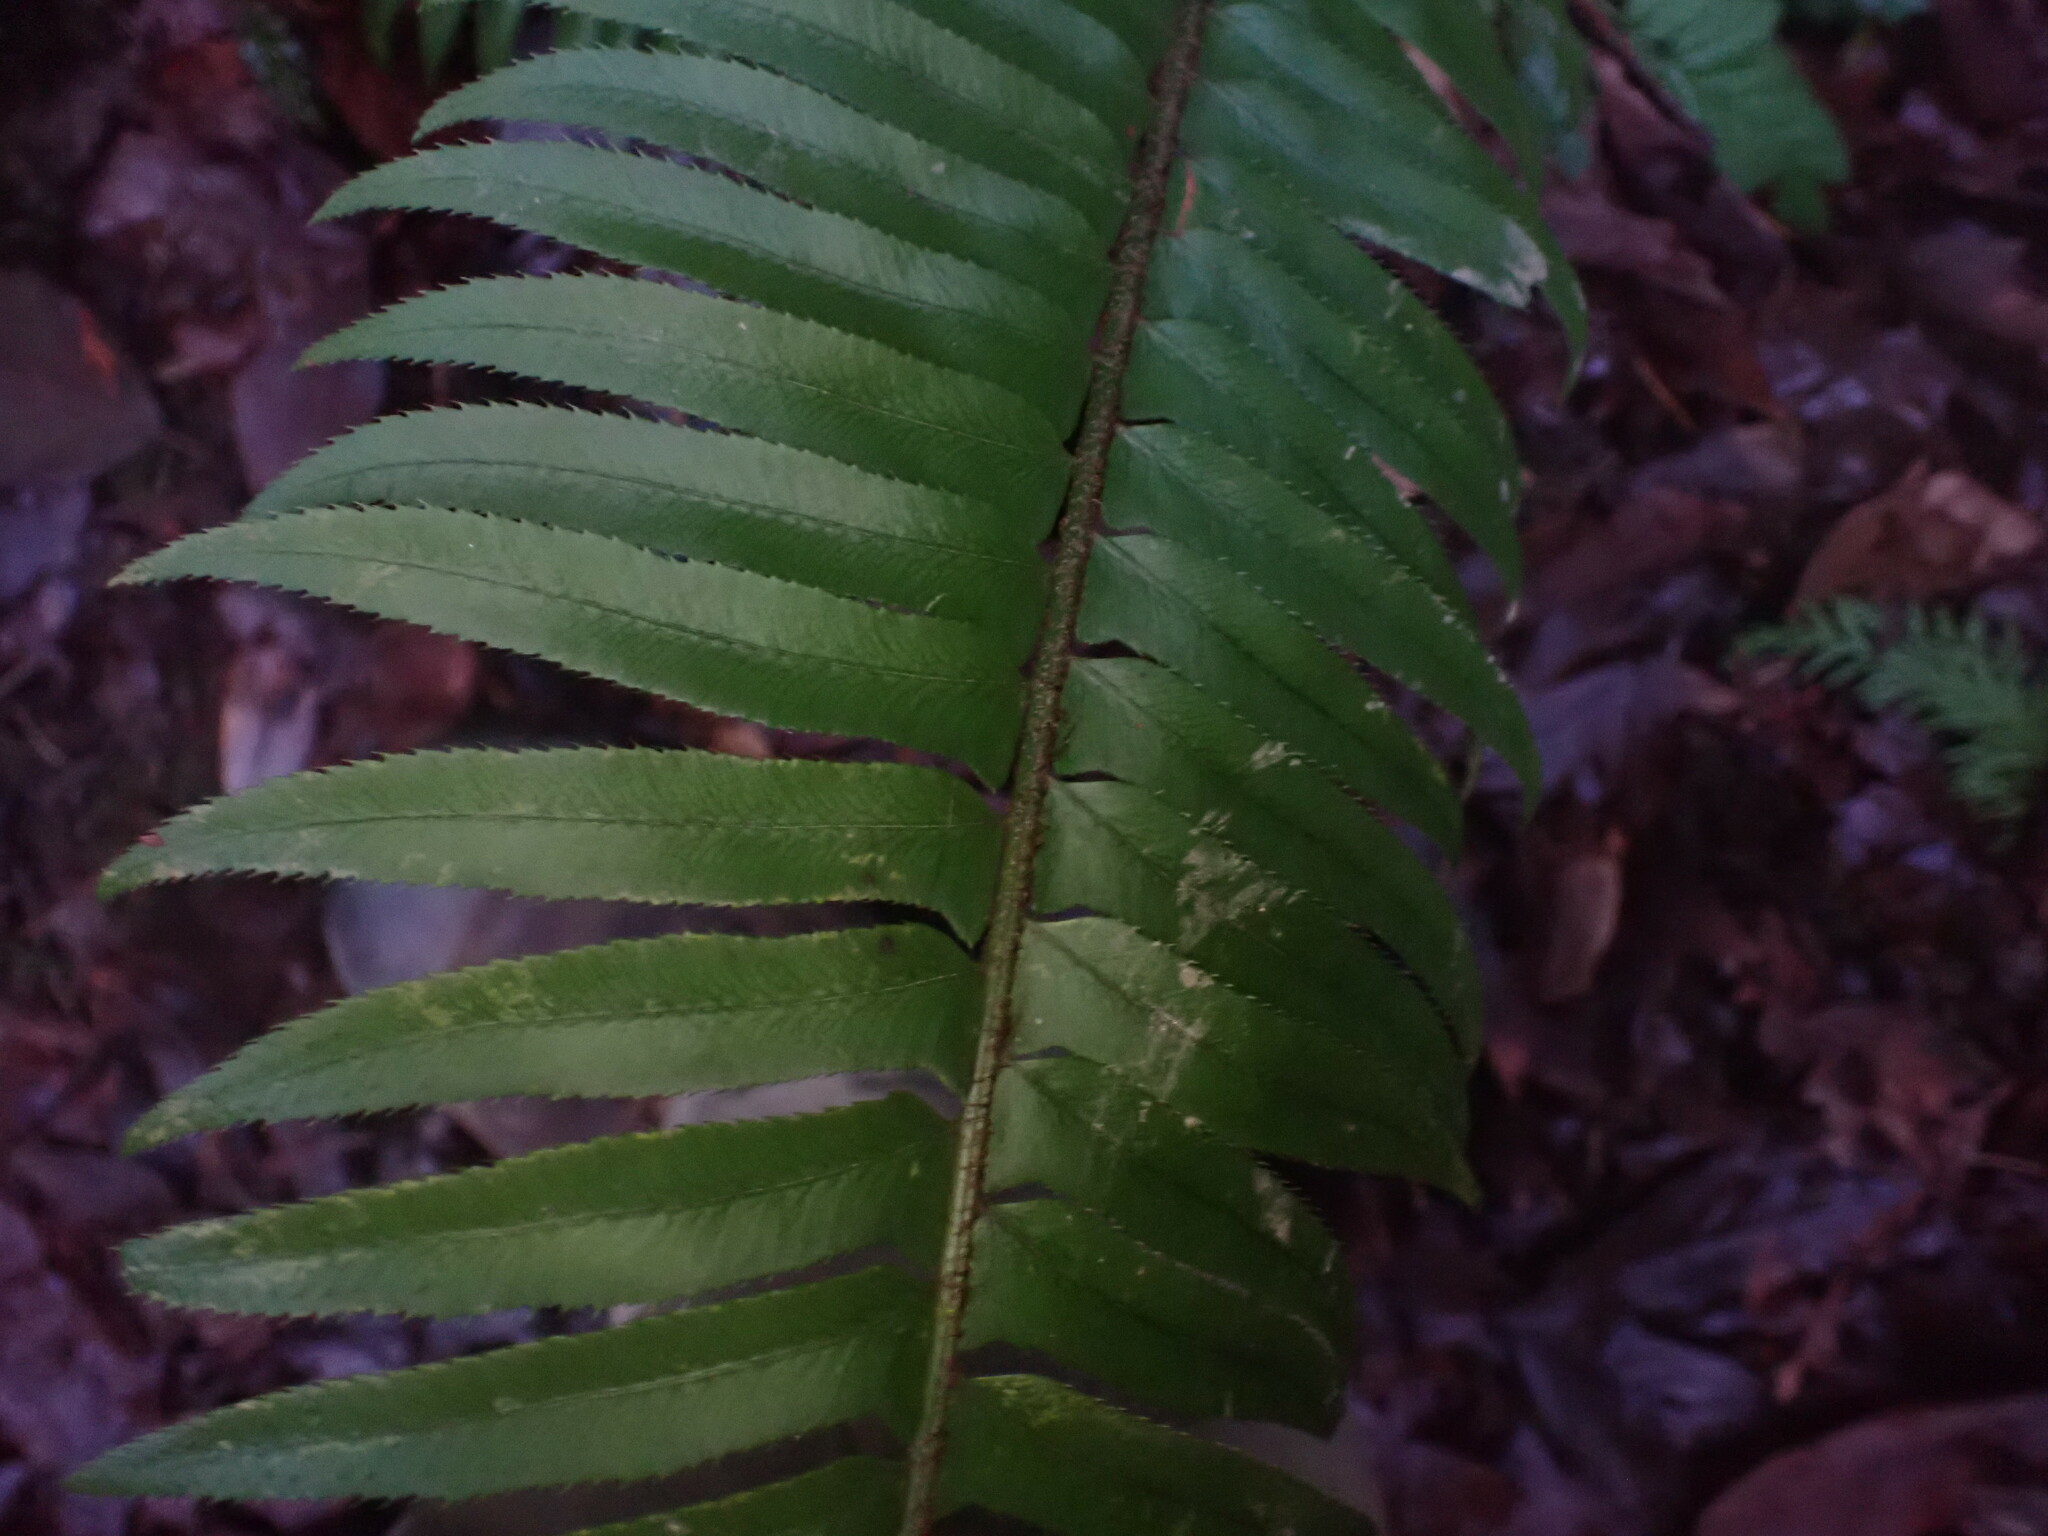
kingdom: Plantae
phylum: Tracheophyta
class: Polypodiopsida
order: Polypodiales
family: Dryopteridaceae
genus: Polystichum
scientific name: Polystichum munitum
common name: Western sword-fern
